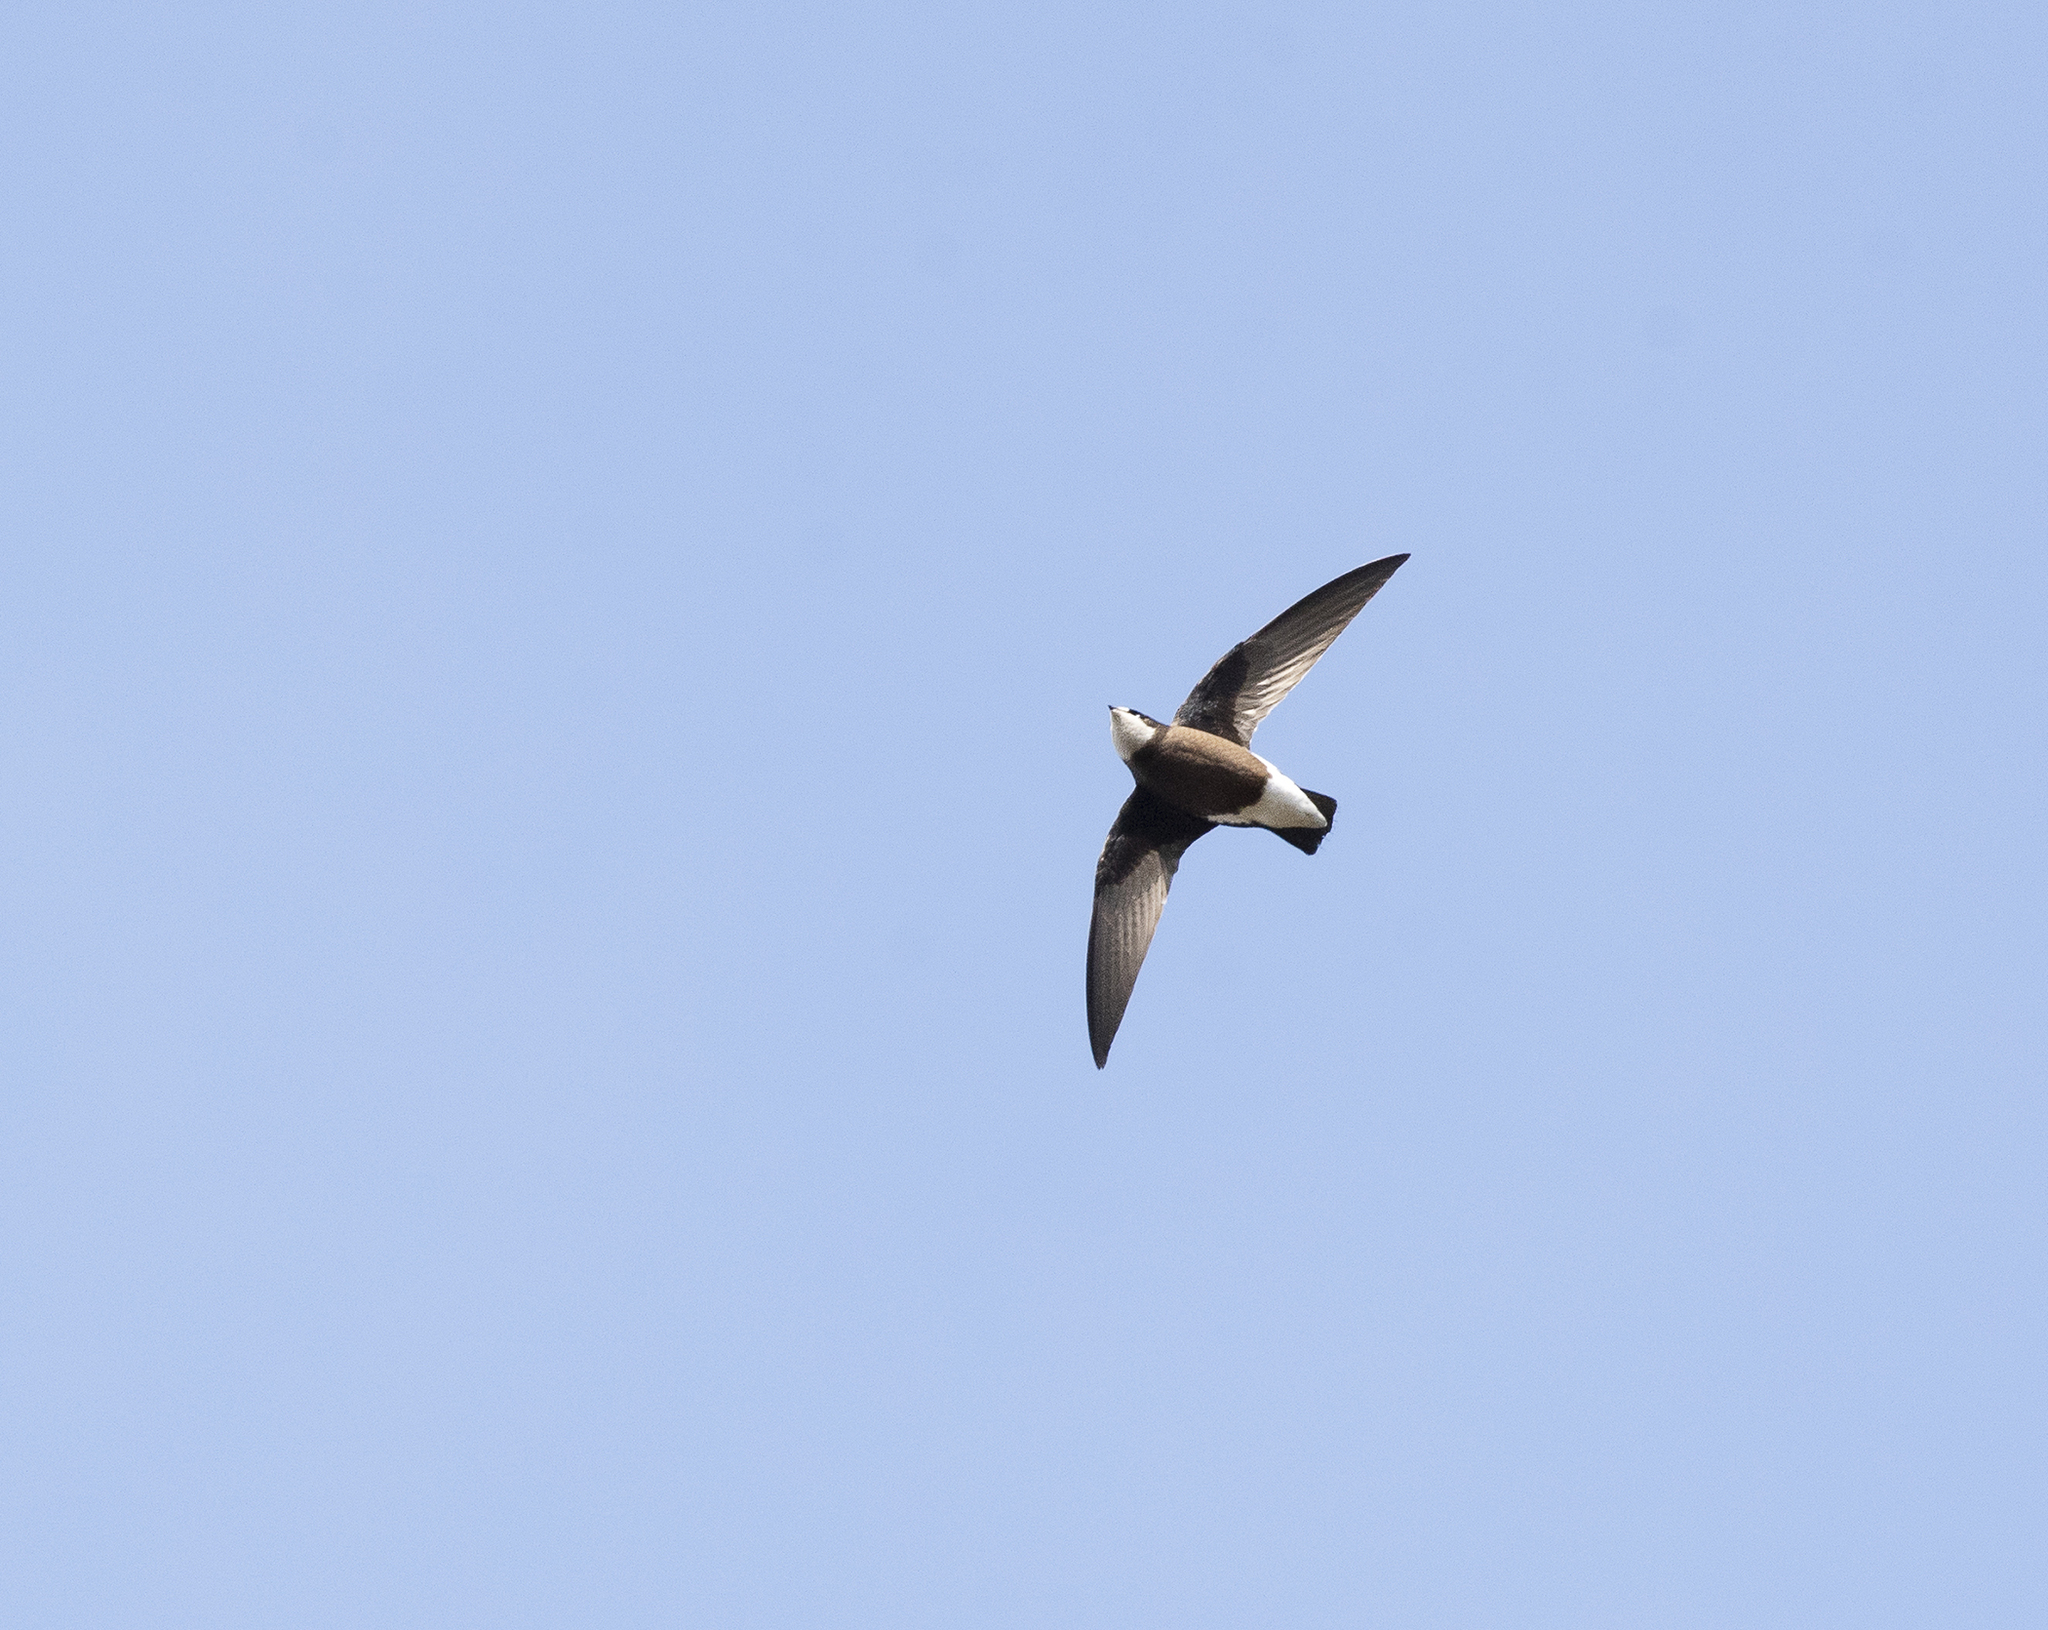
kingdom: Animalia
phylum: Chordata
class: Aves
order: Apodiformes
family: Apodidae
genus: Hirundapus
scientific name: Hirundapus caudacutus
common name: White-throated needletail
